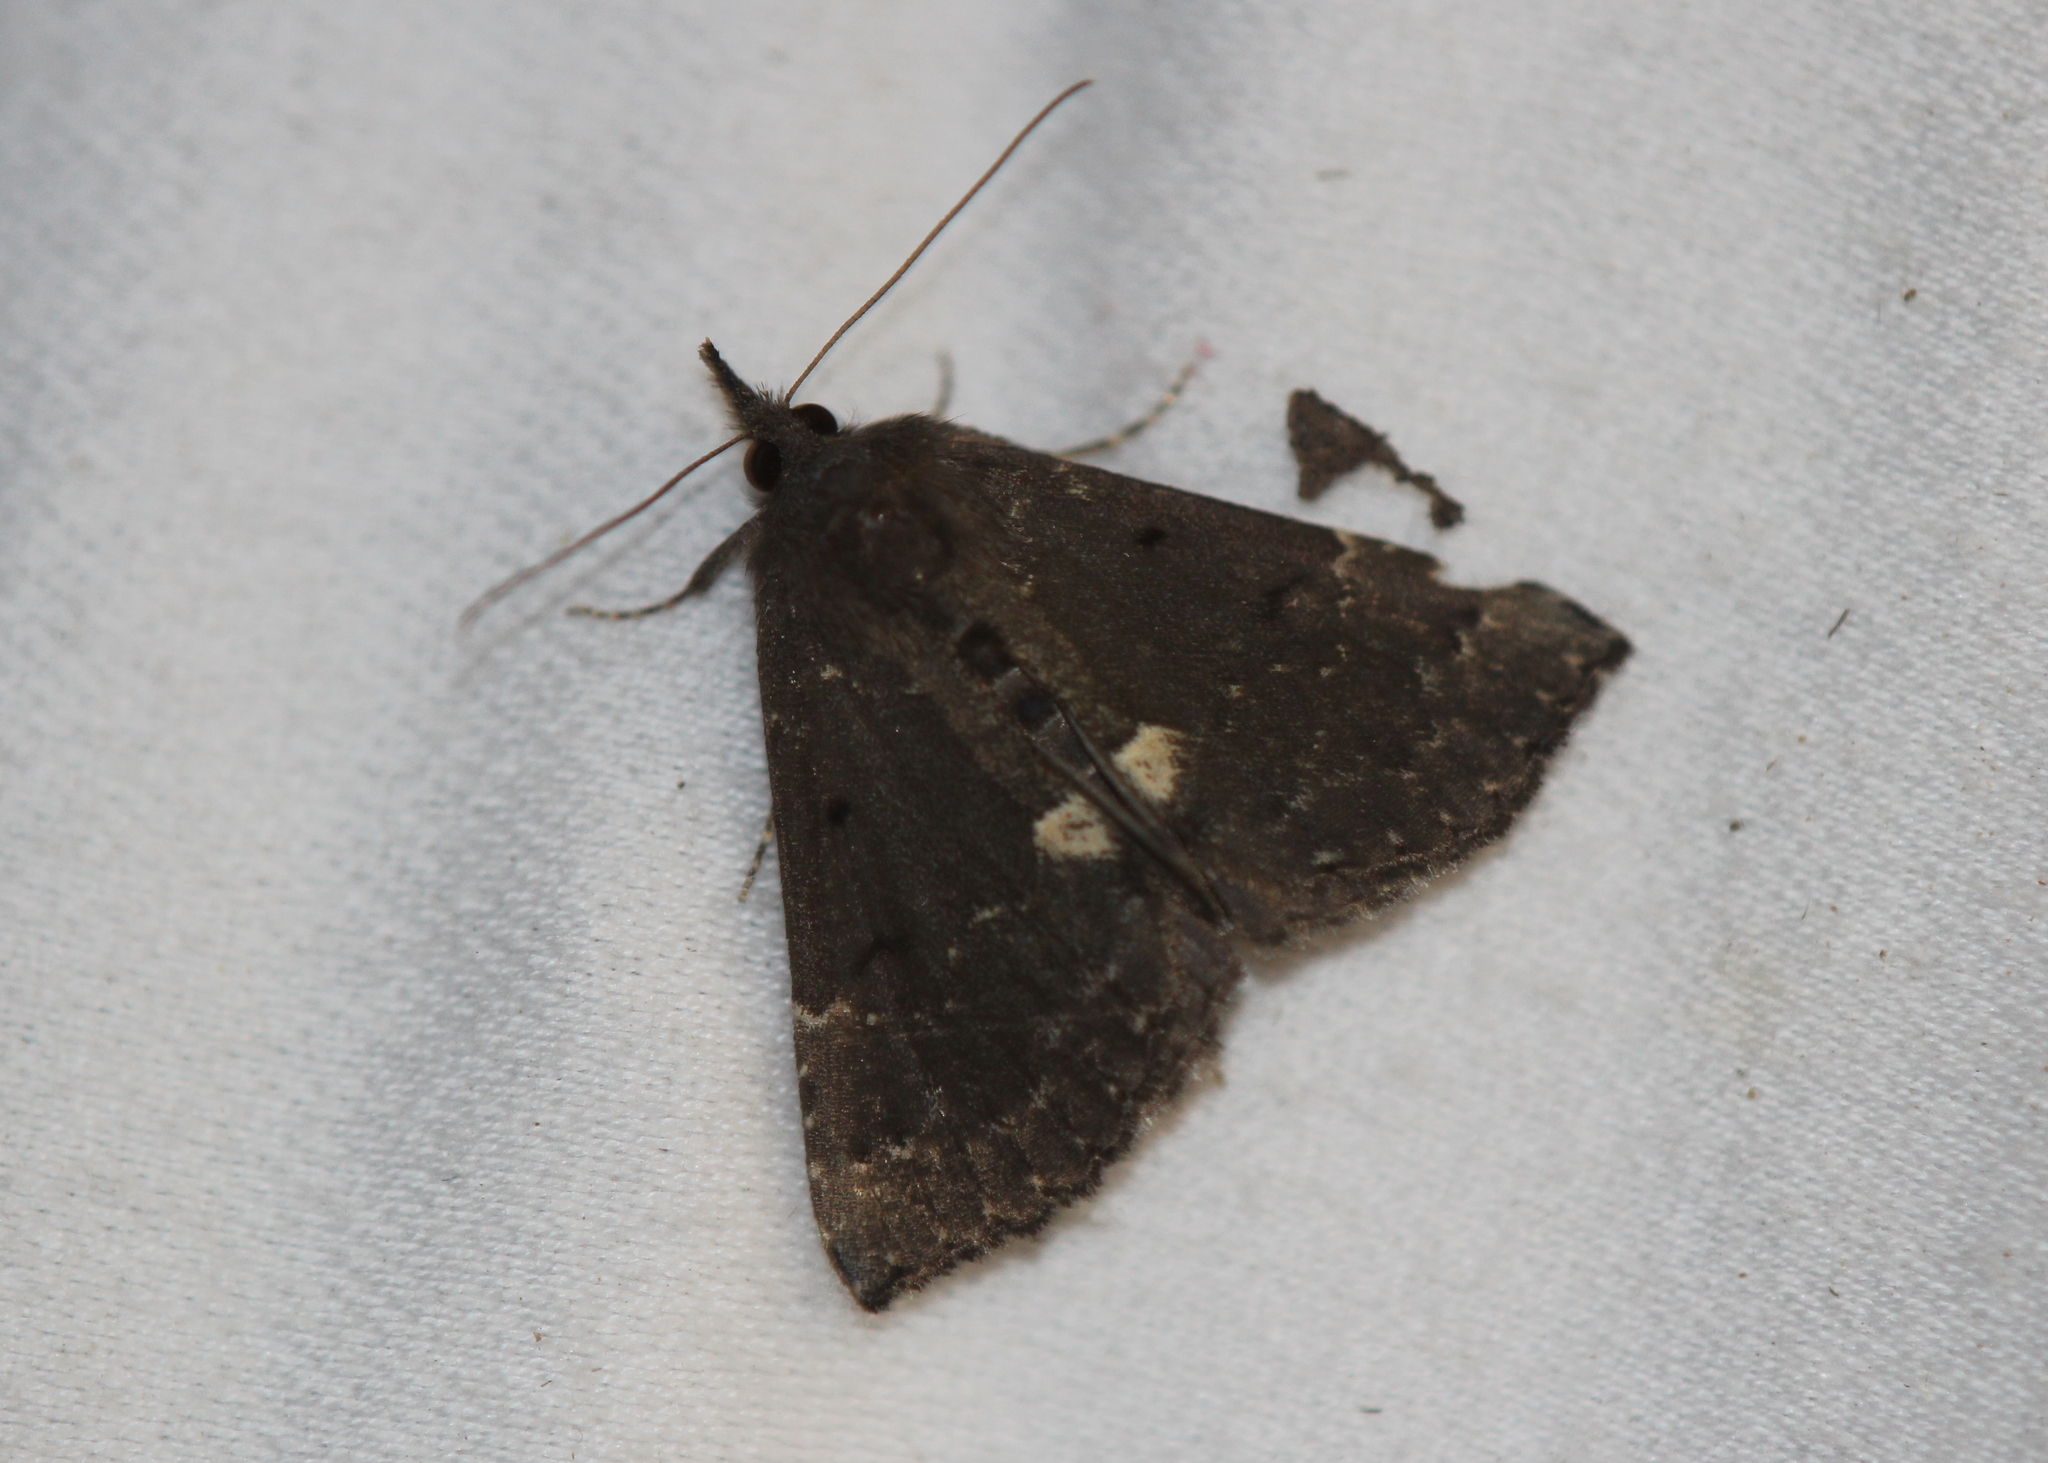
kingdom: Animalia
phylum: Arthropoda
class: Insecta
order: Lepidoptera
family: Erebidae
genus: Hypena
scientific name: Hypena bijugalis
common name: Dimorphic bomolocha moth
